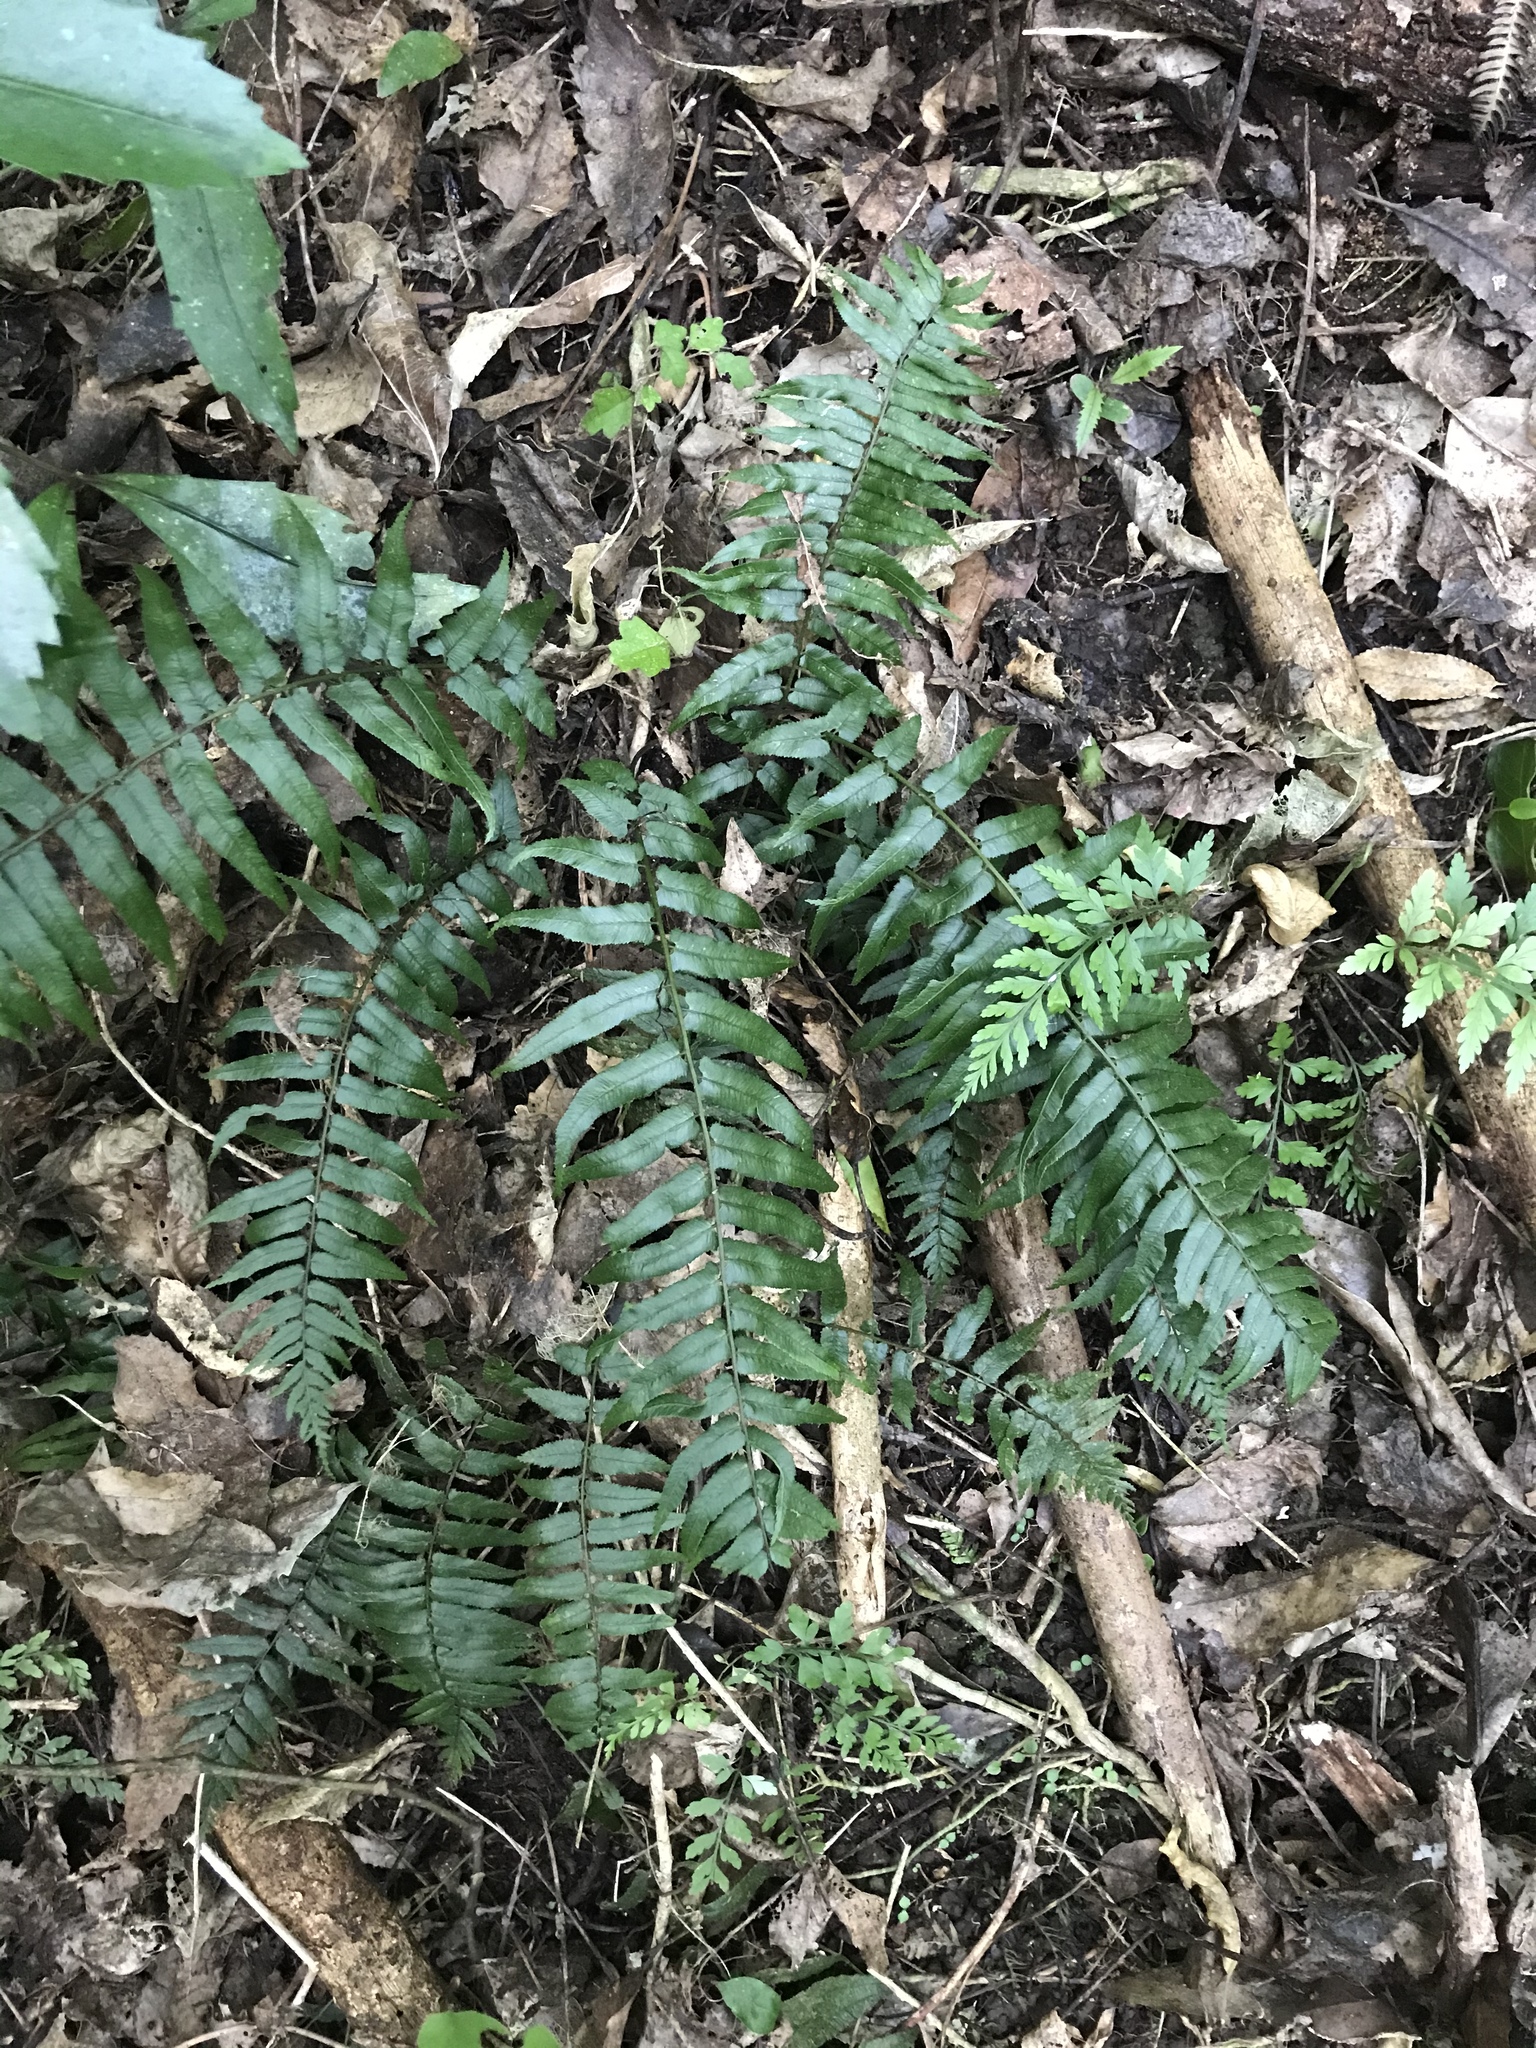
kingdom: Plantae
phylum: Tracheophyta
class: Polypodiopsida
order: Polypodiales
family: Blechnaceae
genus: Icarus
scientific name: Icarus filiformis
